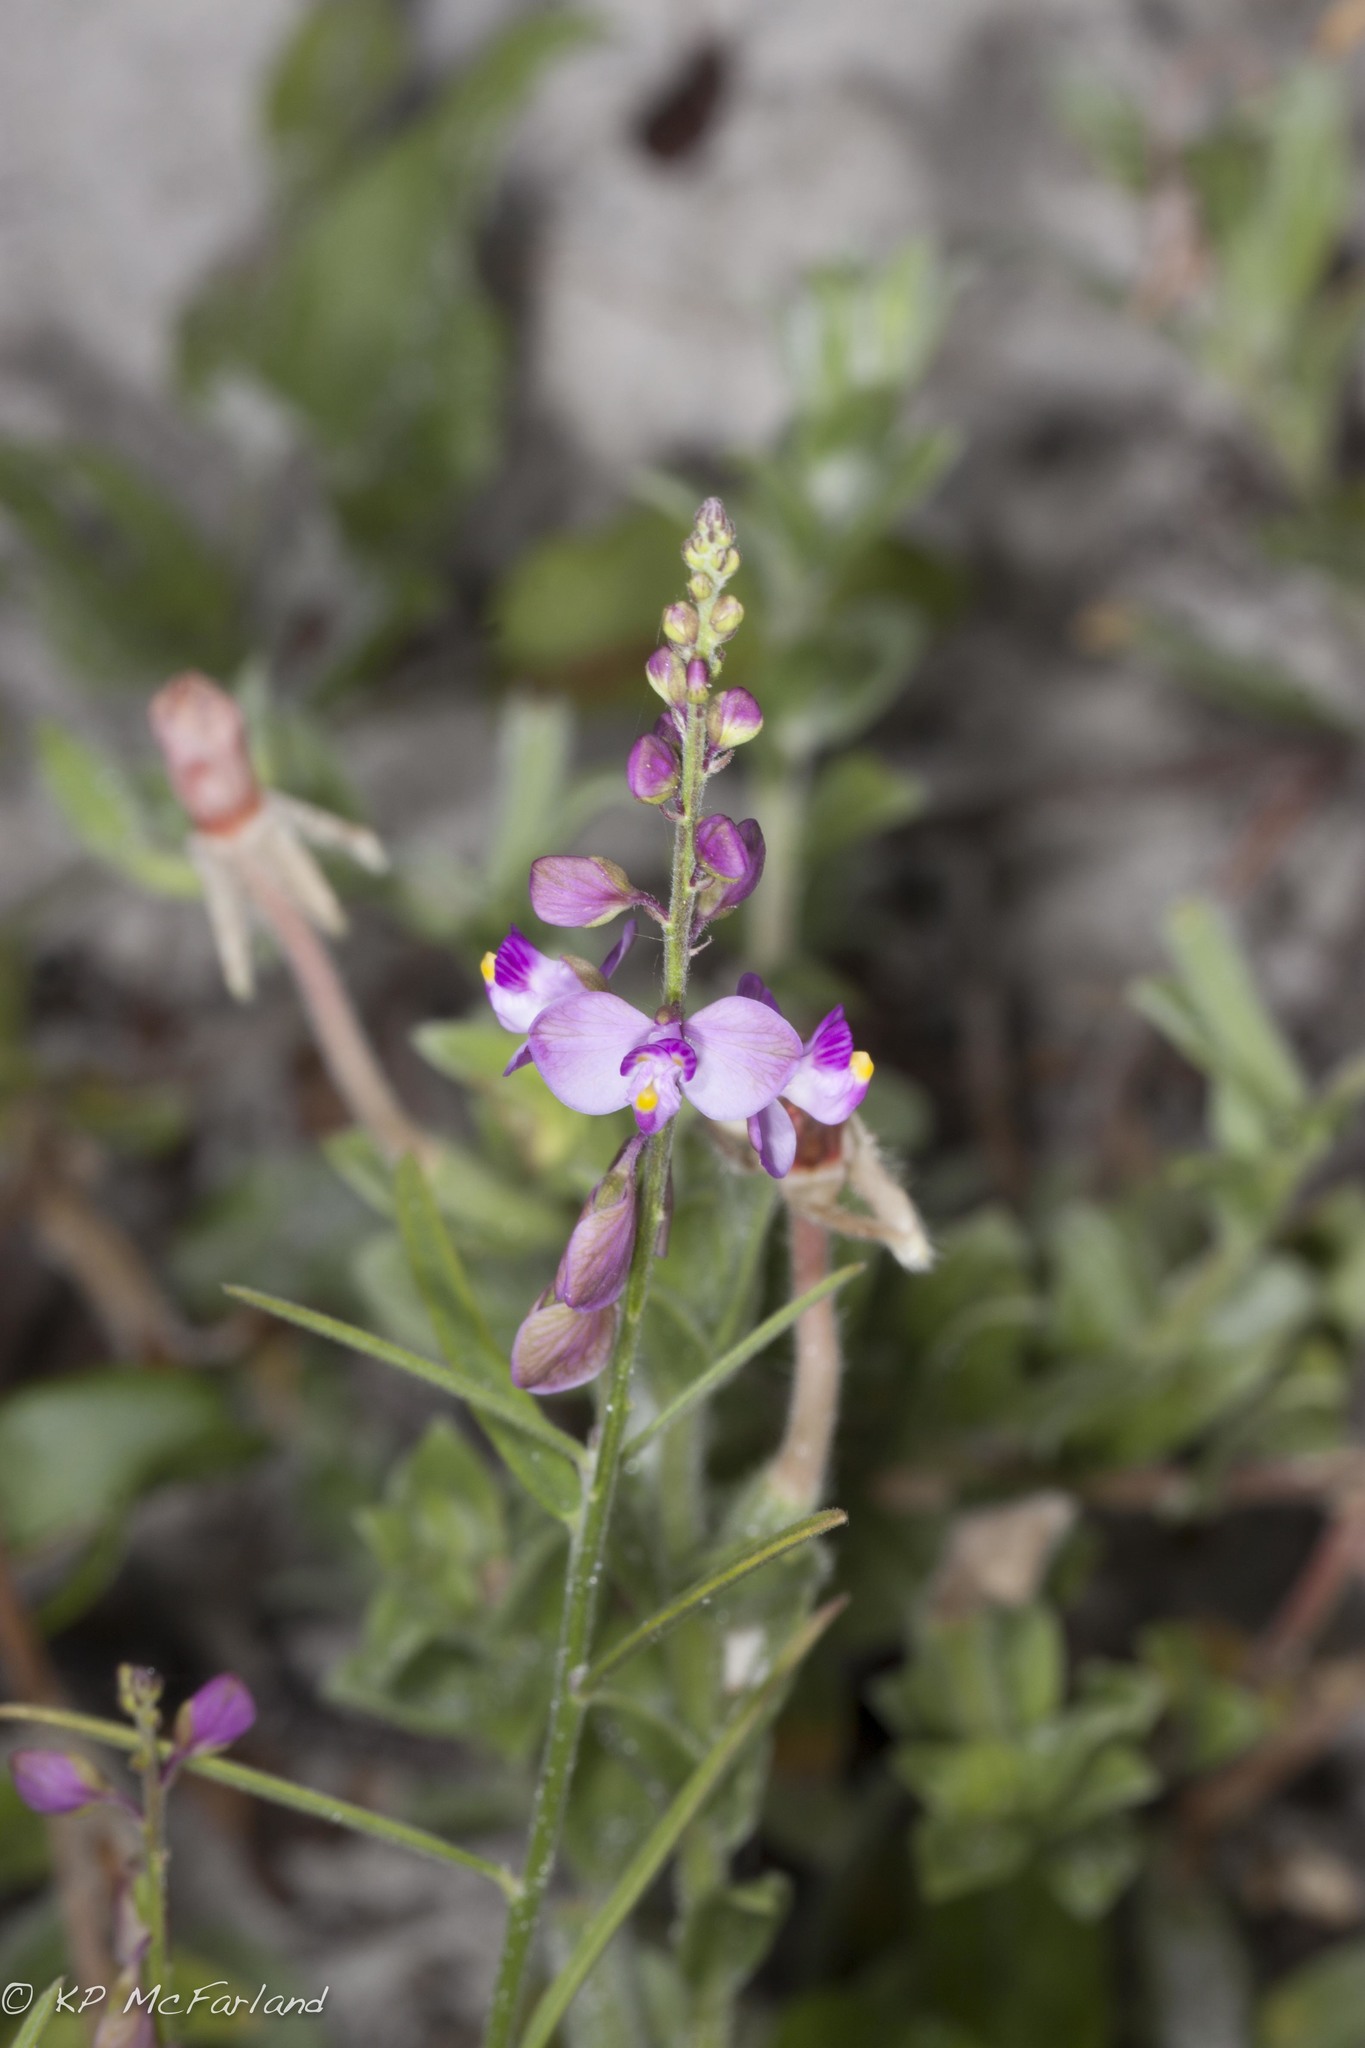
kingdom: Plantae
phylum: Tracheophyta
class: Magnoliopsida
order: Fabales
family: Polygalaceae
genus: Asemeia
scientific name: Asemeia grandiflora
